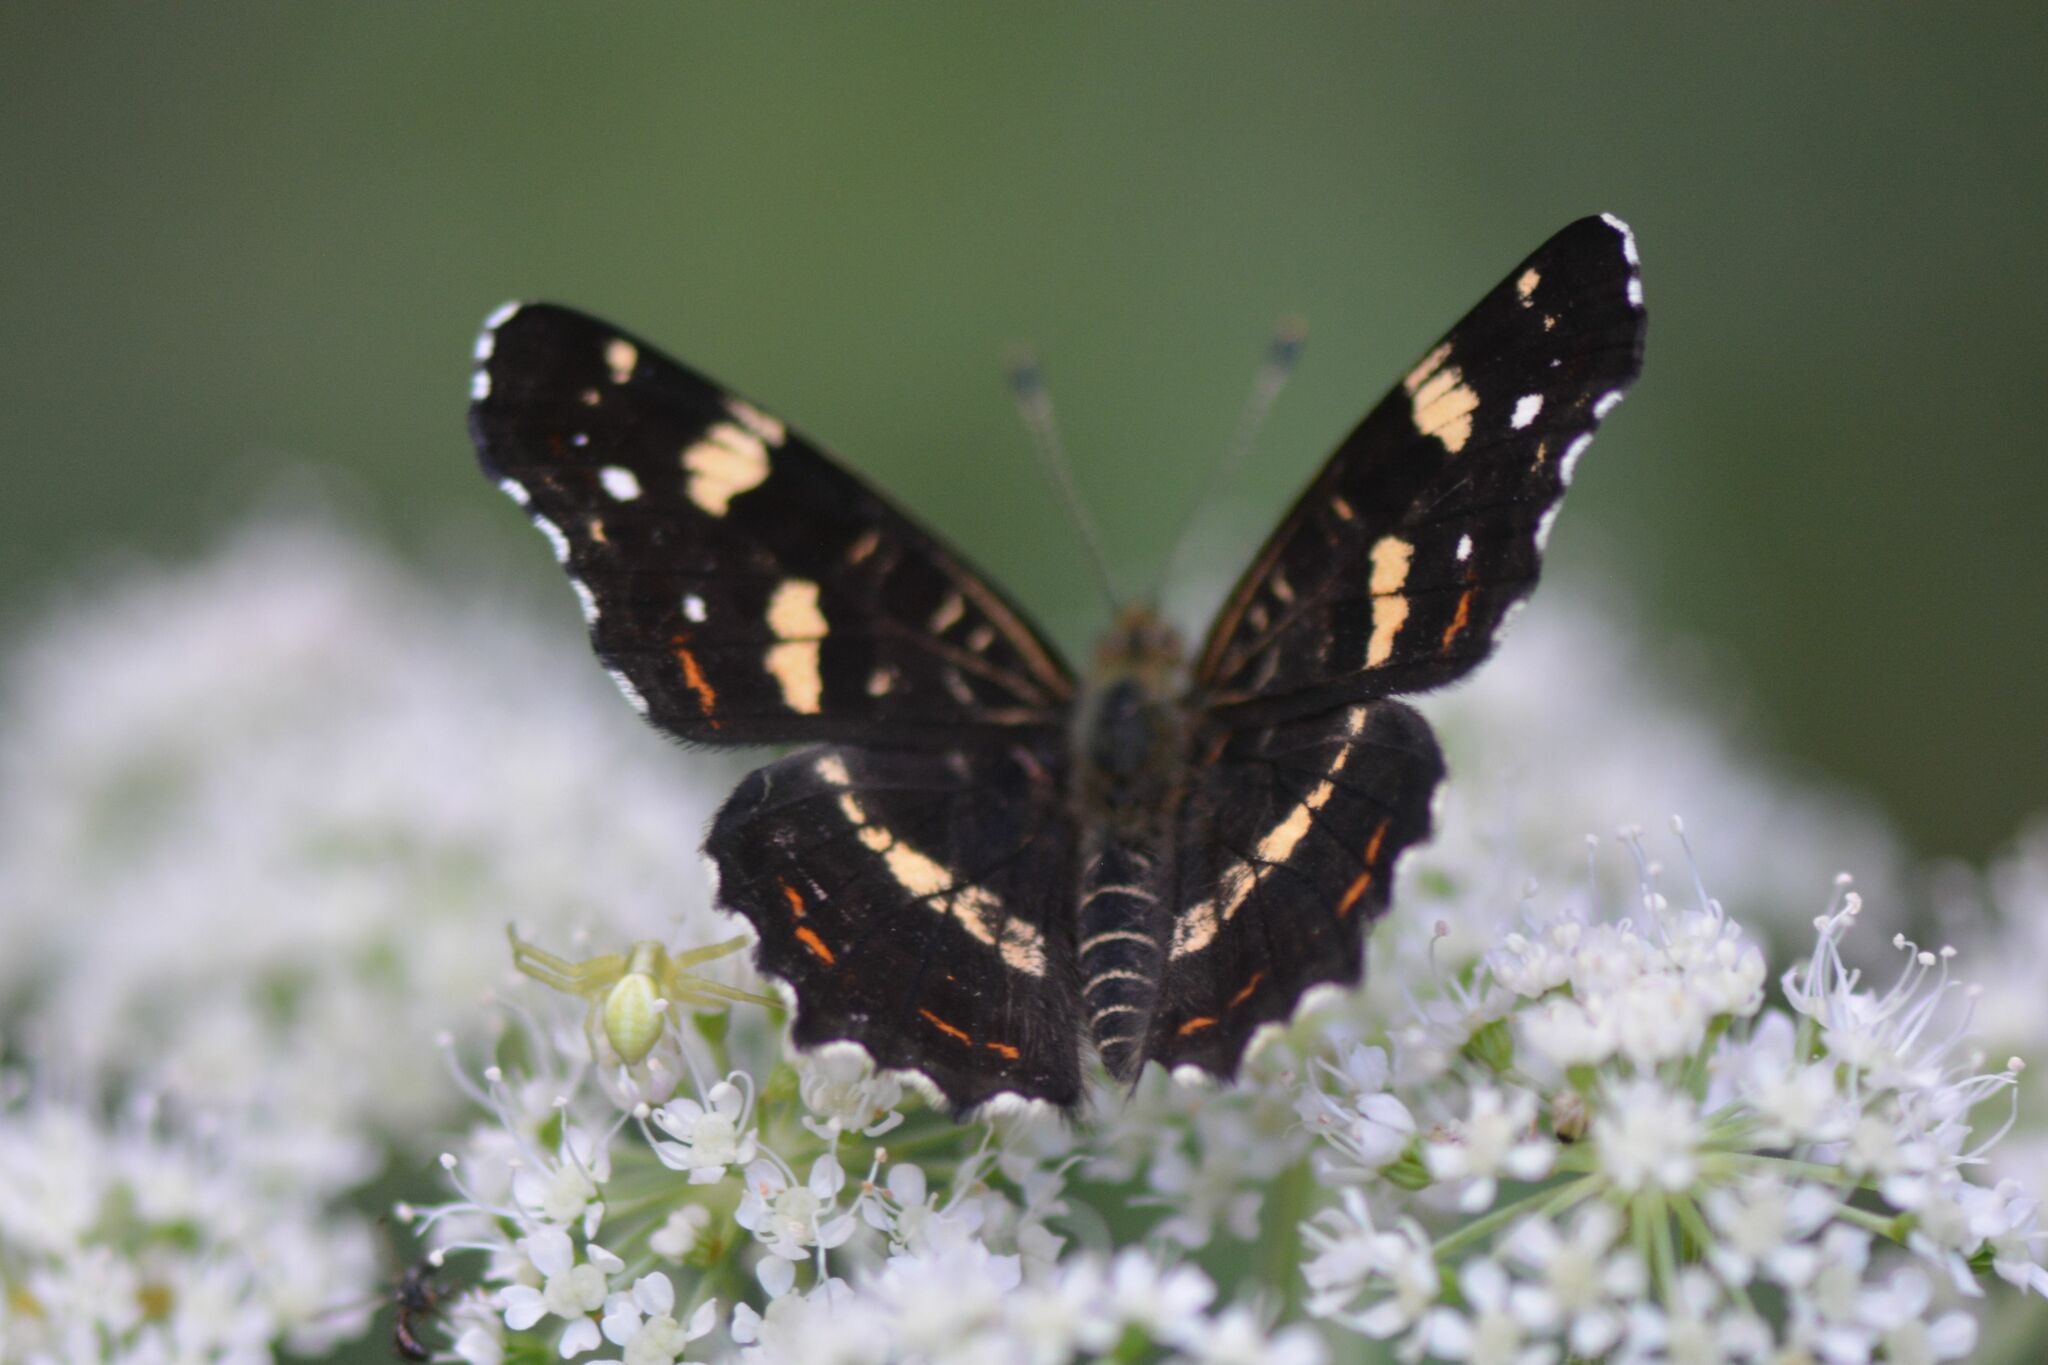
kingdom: Animalia
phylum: Arthropoda
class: Insecta
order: Lepidoptera
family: Nymphalidae
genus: Araschnia
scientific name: Araschnia levana
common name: Map butterfly
